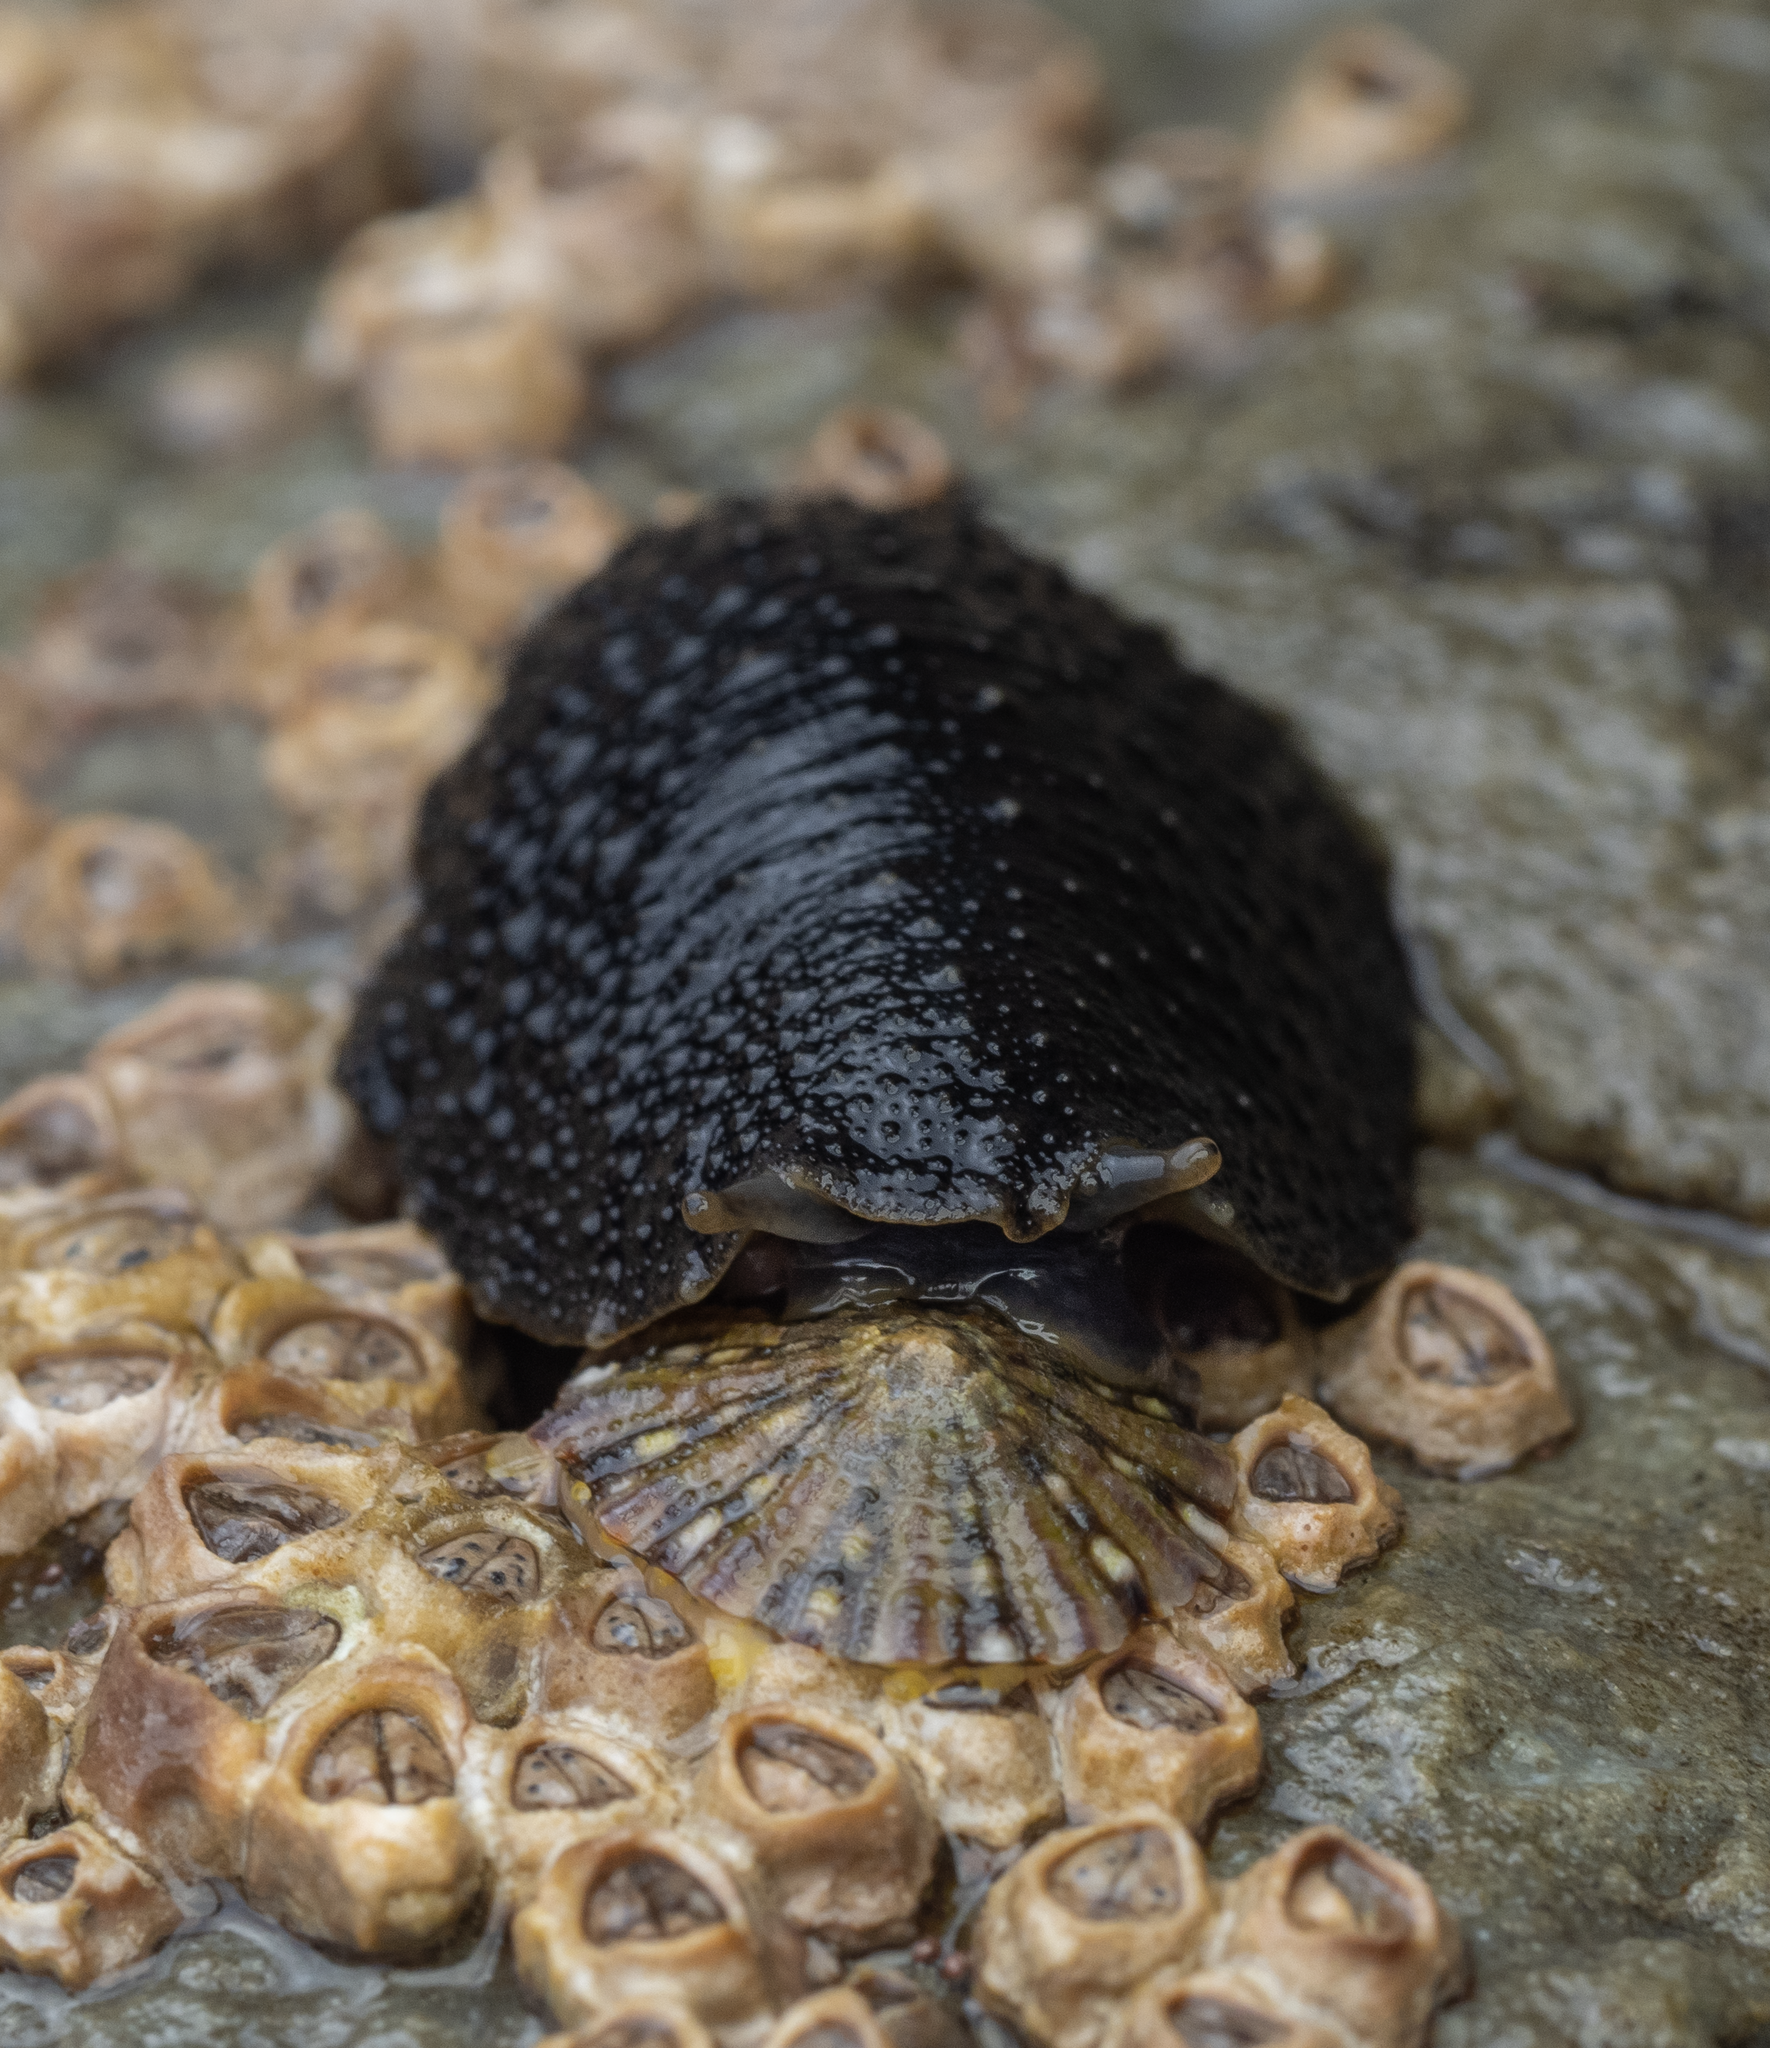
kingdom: Animalia
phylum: Mollusca
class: Gastropoda
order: Systellommatophora
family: Onchidiidae
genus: Onchidella
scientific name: Onchidella nigricans
